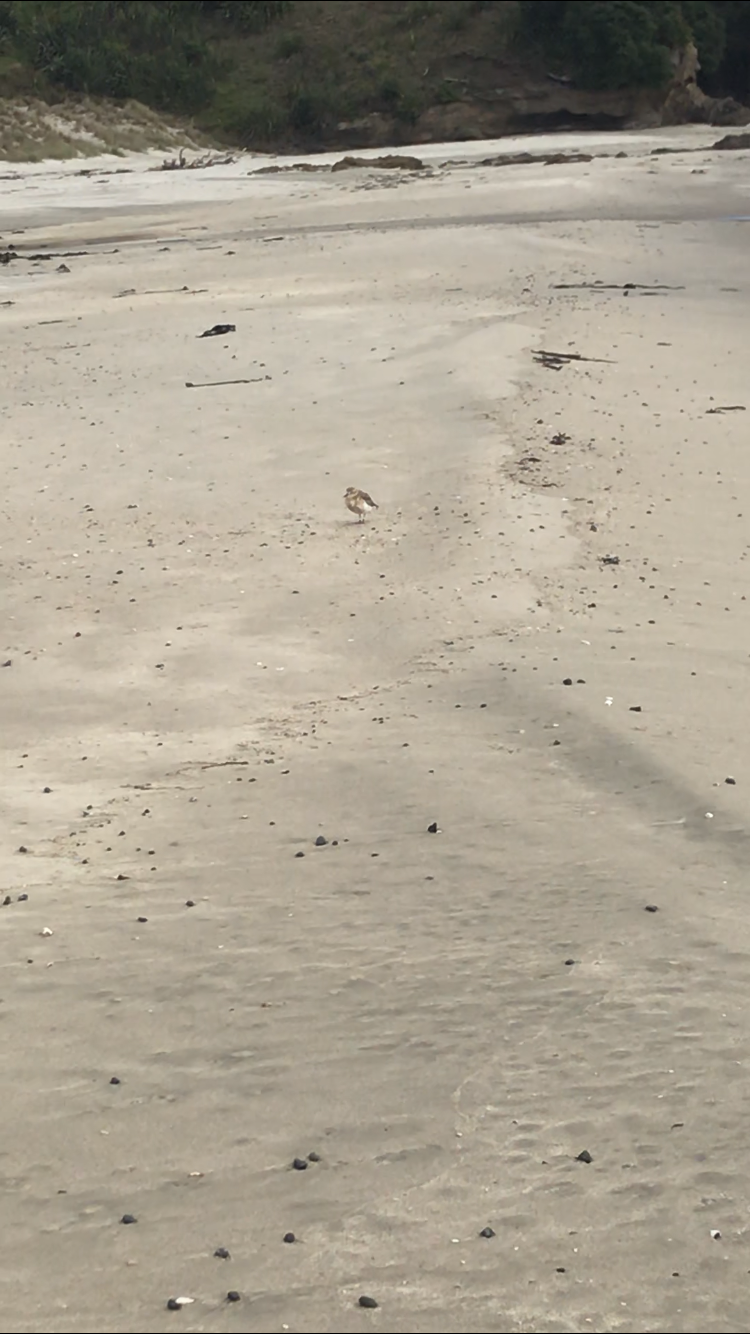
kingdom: Animalia
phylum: Chordata
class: Aves
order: Charadriiformes
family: Charadriidae
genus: Anarhynchus
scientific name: Anarhynchus
